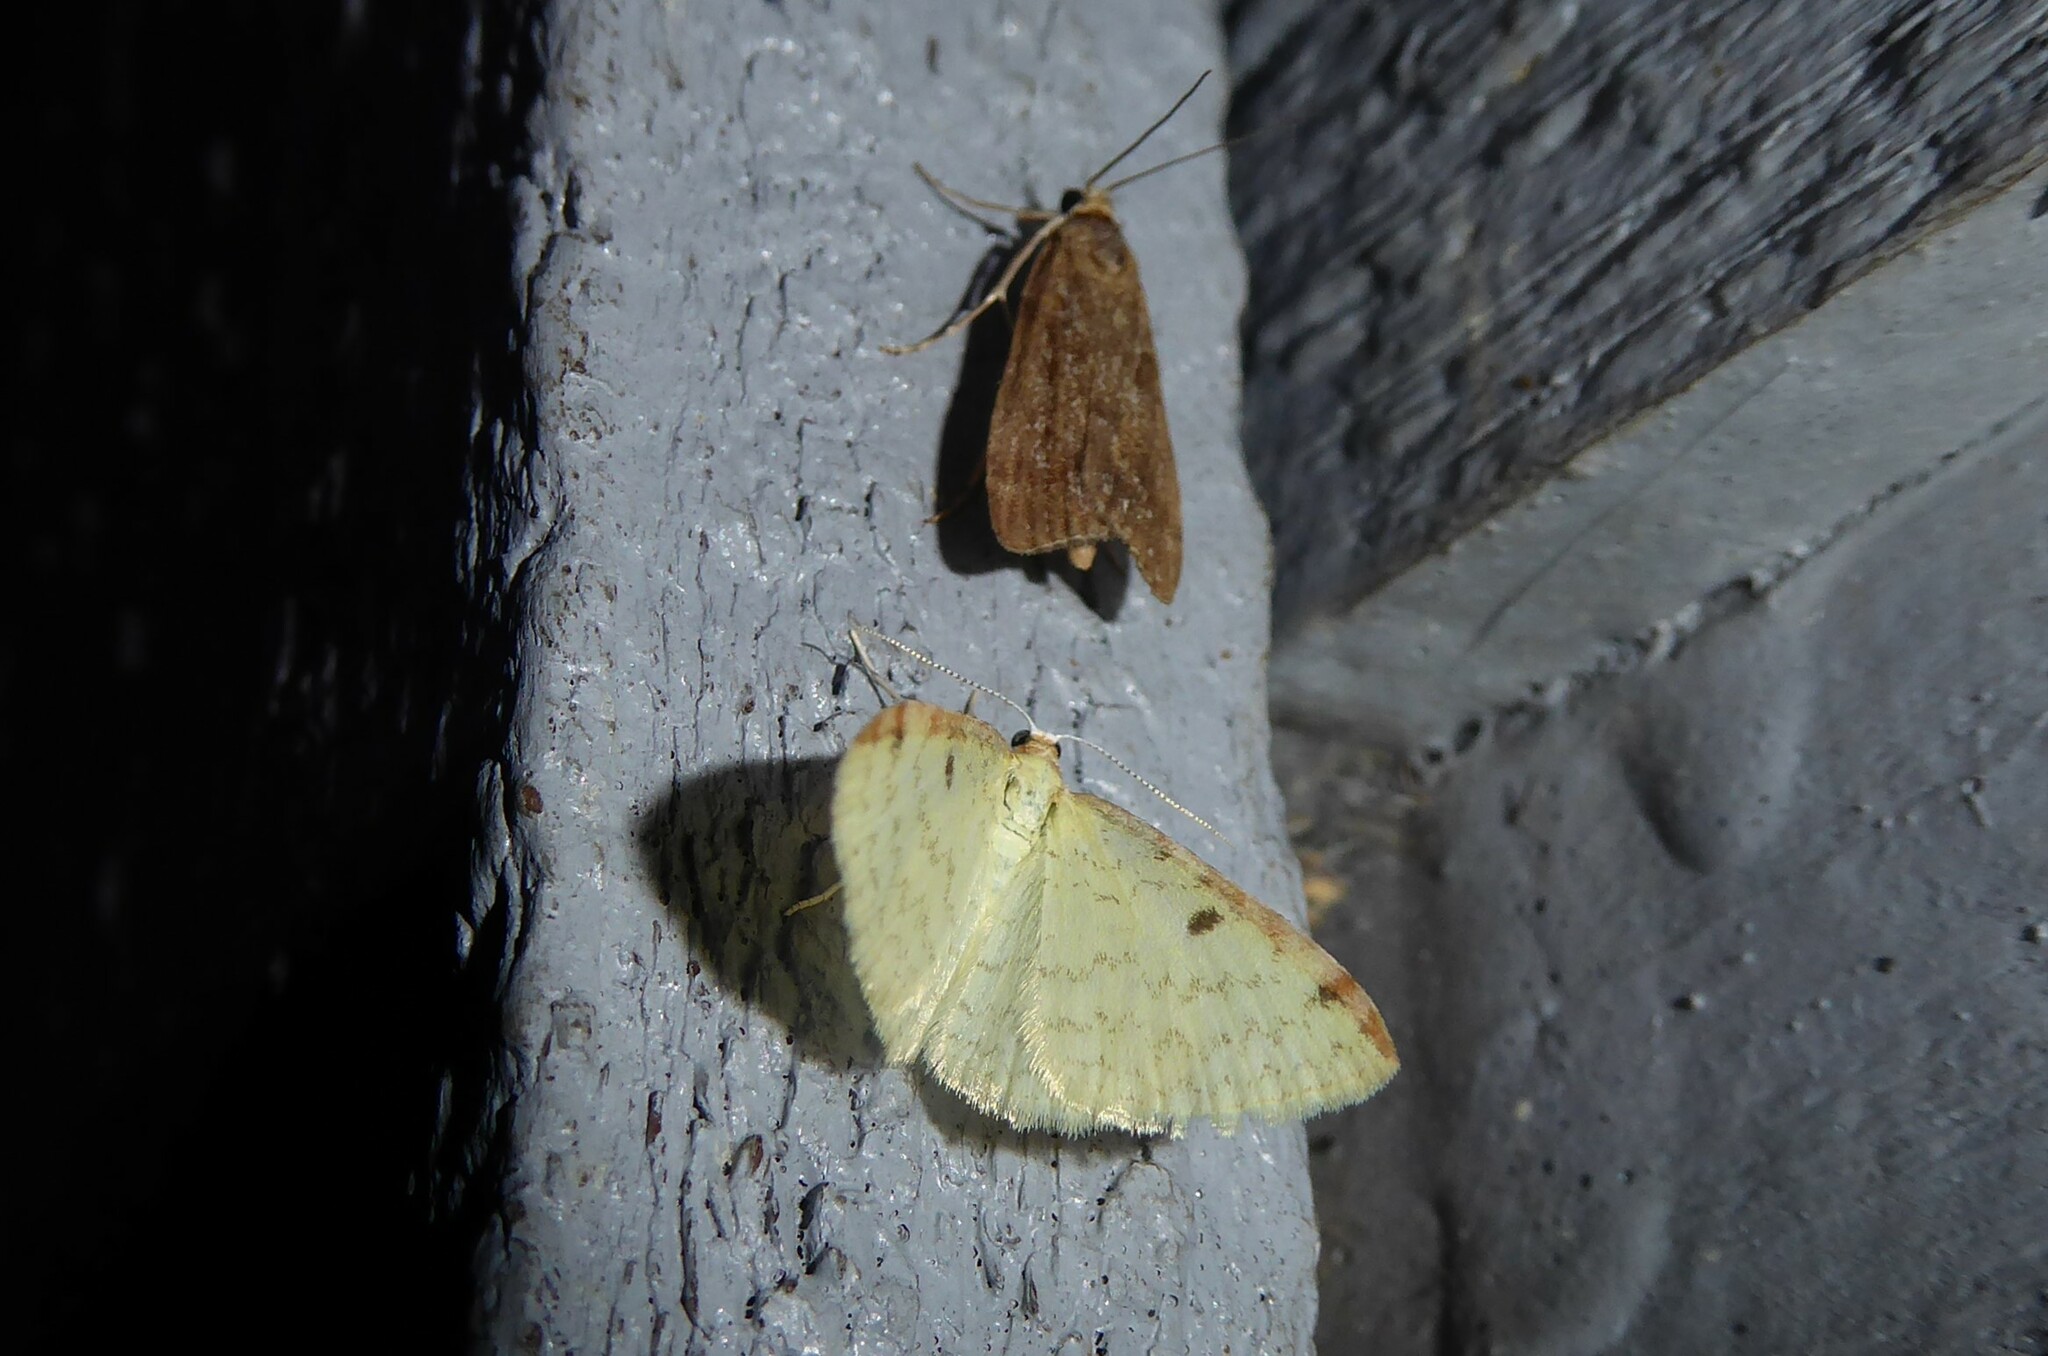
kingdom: Animalia
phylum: Arthropoda
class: Insecta
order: Lepidoptera
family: Geometridae
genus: Epiphryne
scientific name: Epiphryne undosata
